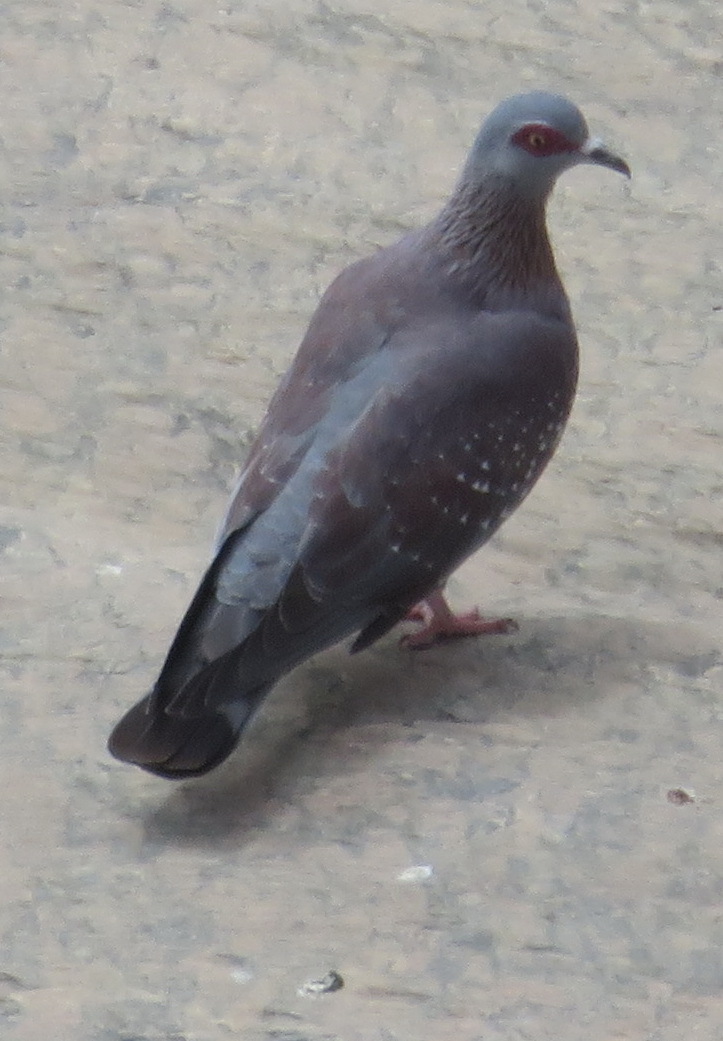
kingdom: Animalia
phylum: Chordata
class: Aves
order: Columbiformes
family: Columbidae
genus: Columba
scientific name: Columba guinea
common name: Speckled pigeon
